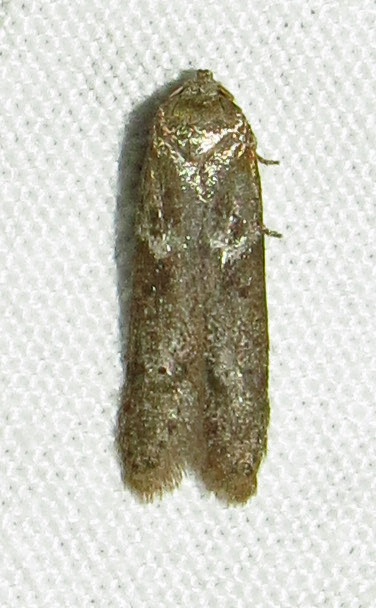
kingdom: Animalia
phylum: Arthropoda
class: Insecta
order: Lepidoptera
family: Blastobasidae
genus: Blastobasis
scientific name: Blastobasis glandulella
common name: Acorn moth
